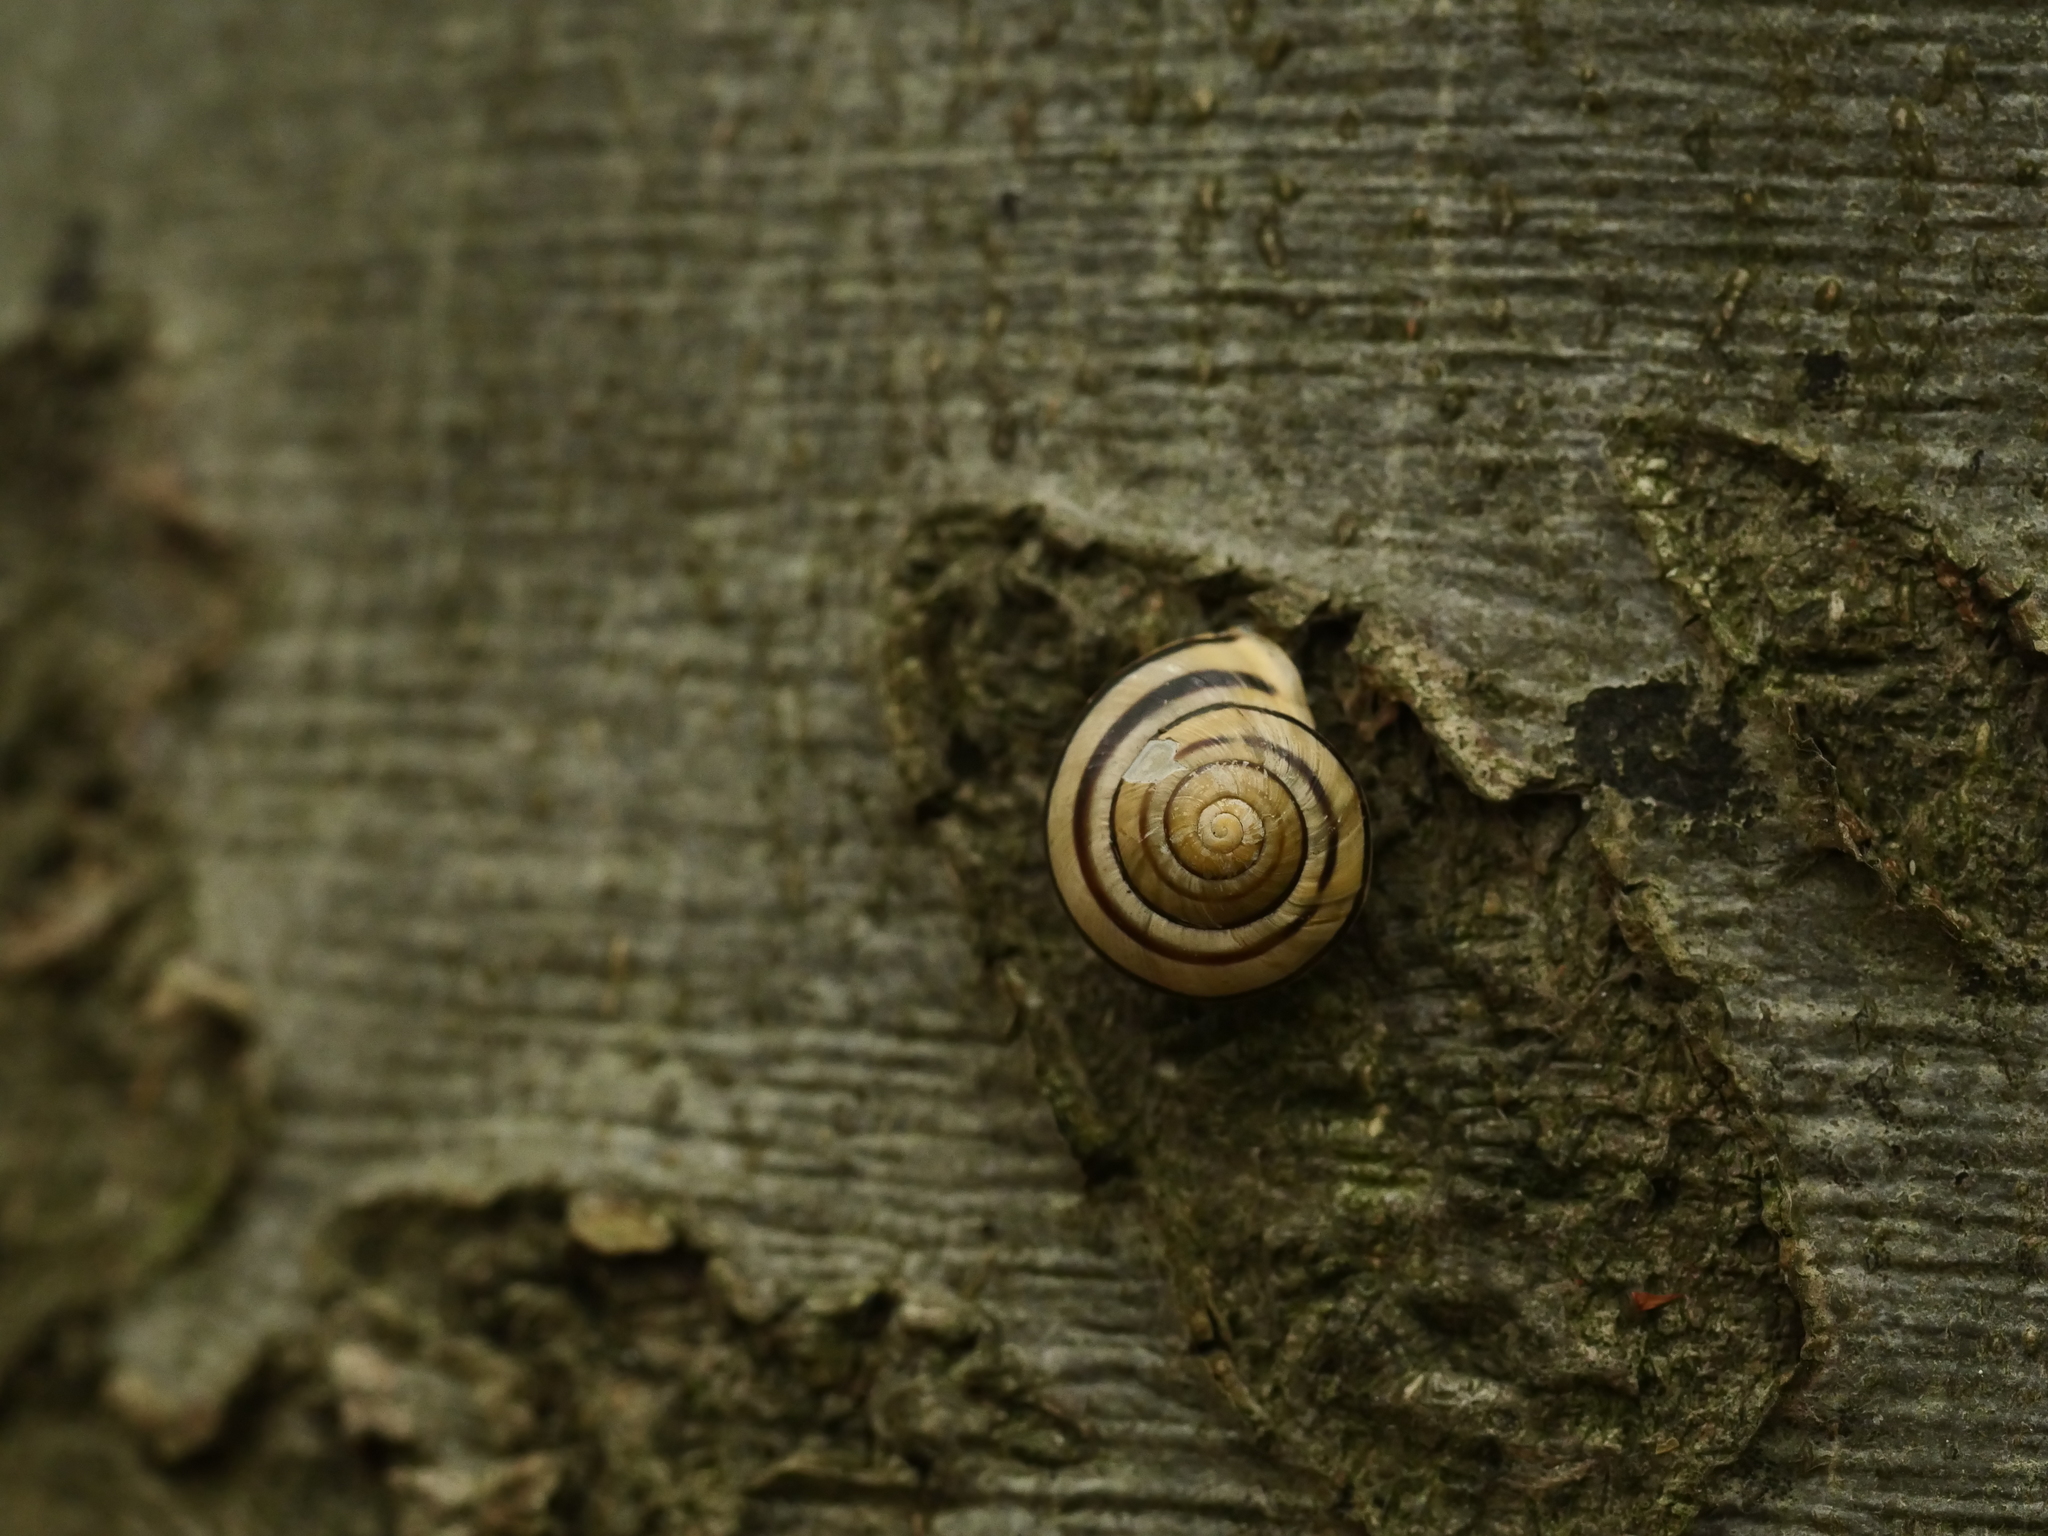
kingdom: Animalia
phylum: Mollusca
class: Gastropoda
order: Stylommatophora
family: Helicidae
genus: Cepaea
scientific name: Cepaea hortensis
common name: White-lip gardensnail
